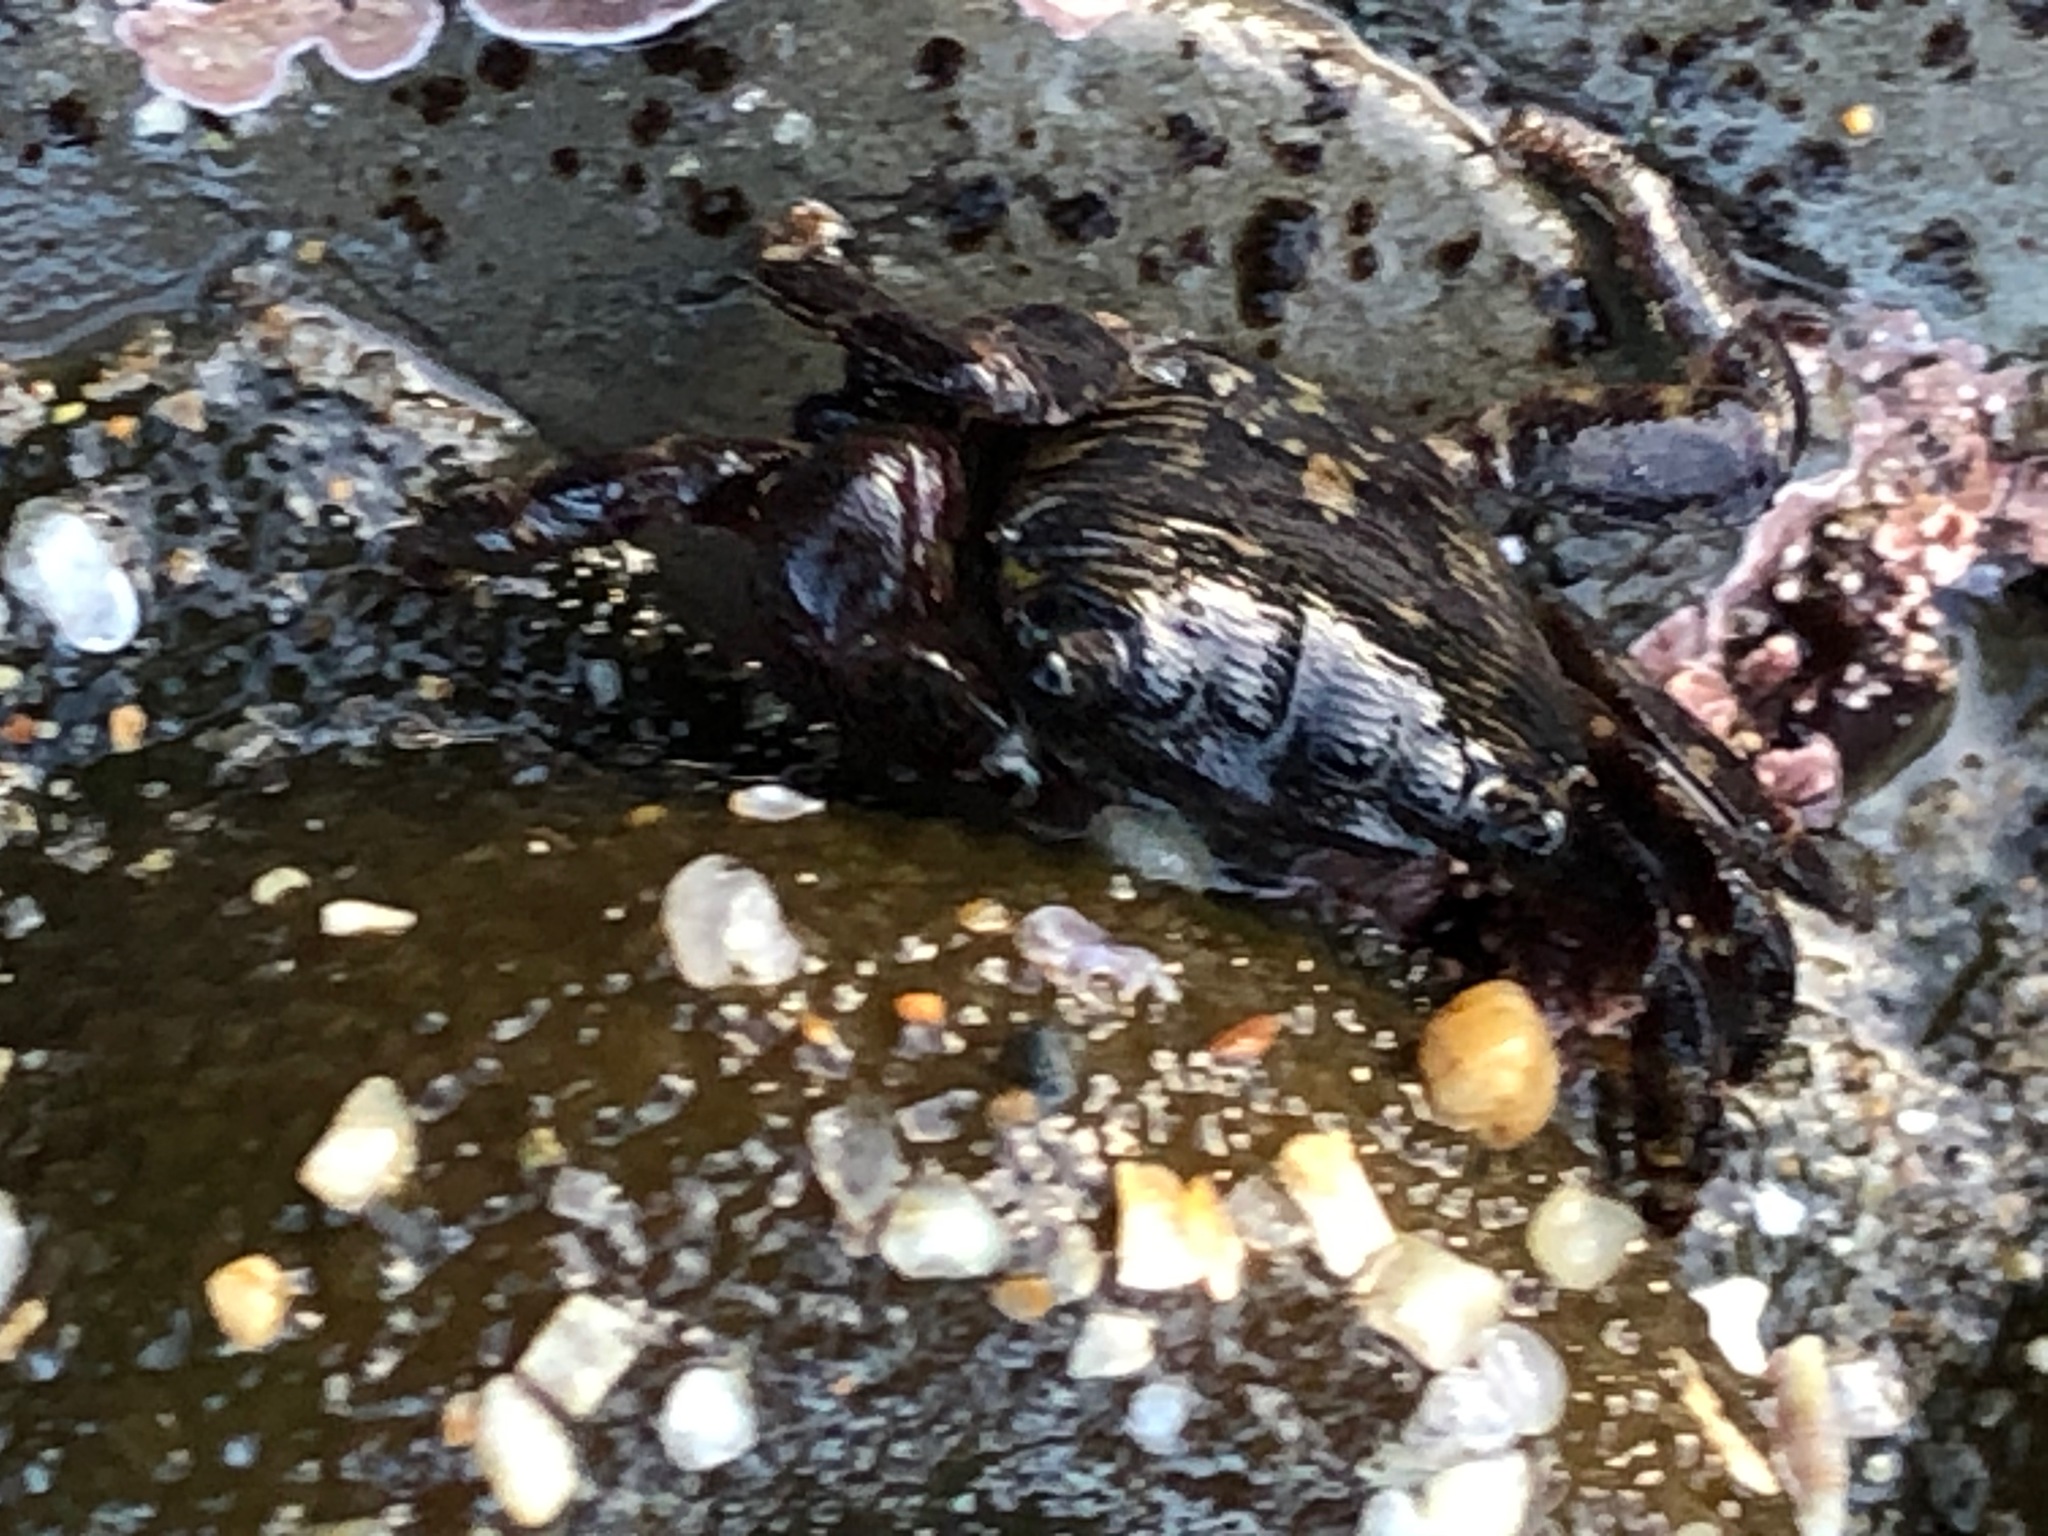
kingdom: Animalia
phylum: Arthropoda
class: Malacostraca
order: Decapoda
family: Grapsidae
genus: Pachygrapsus
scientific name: Pachygrapsus crassipes
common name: Striped shore crab
